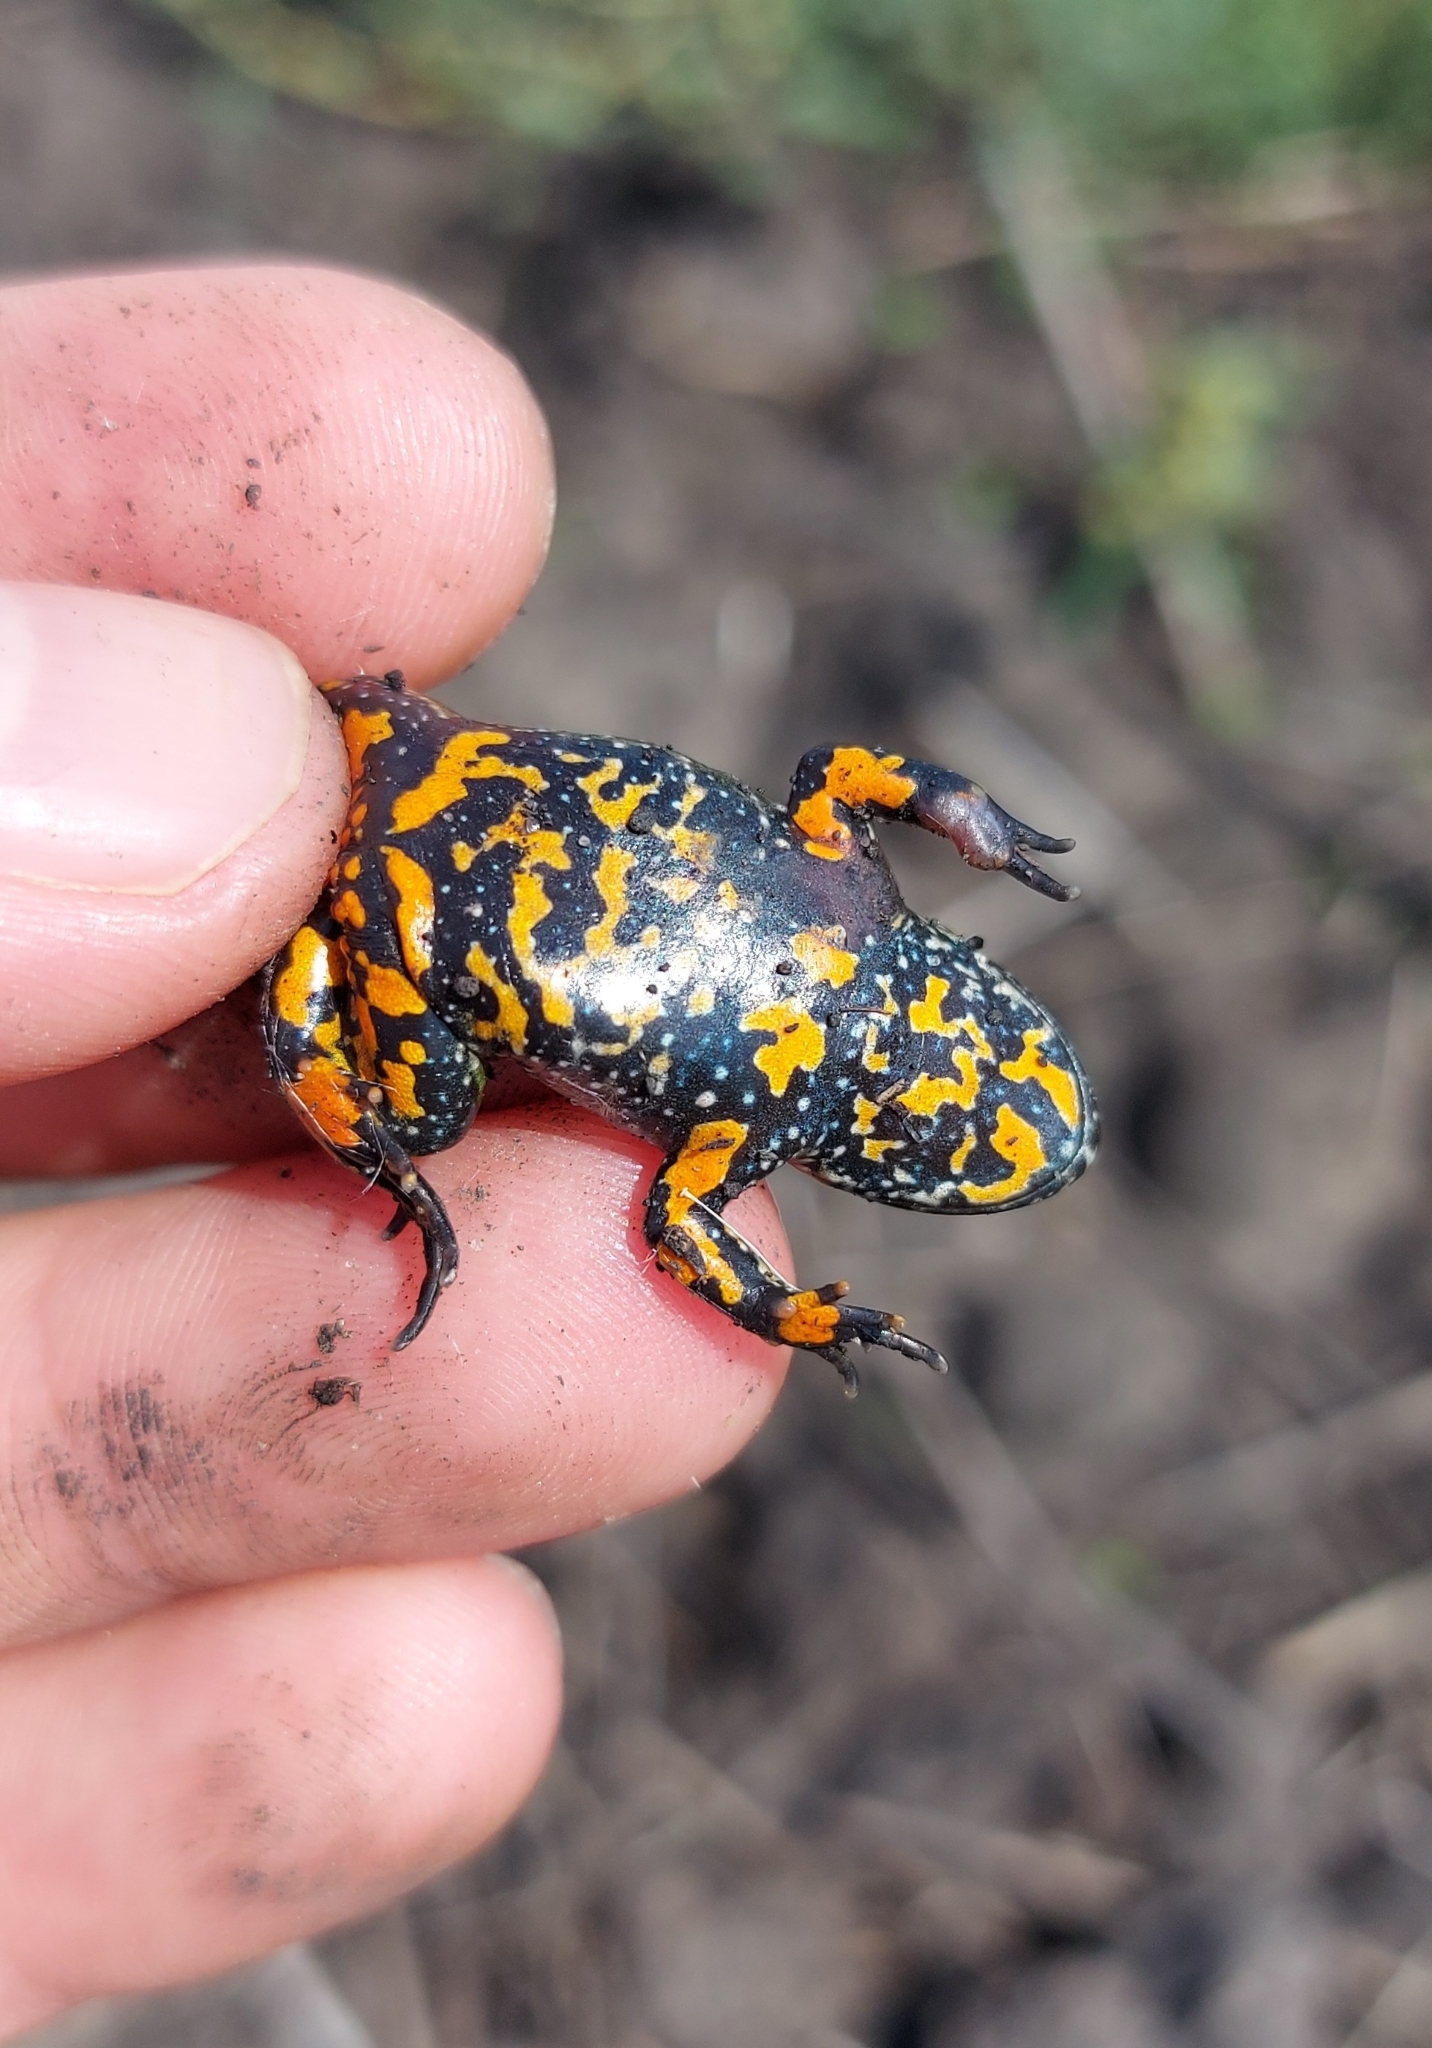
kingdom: Animalia
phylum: Chordata
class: Amphibia
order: Anura
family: Bombinatoridae
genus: Bombina
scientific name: Bombina bombina
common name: Fire-bellied toad
